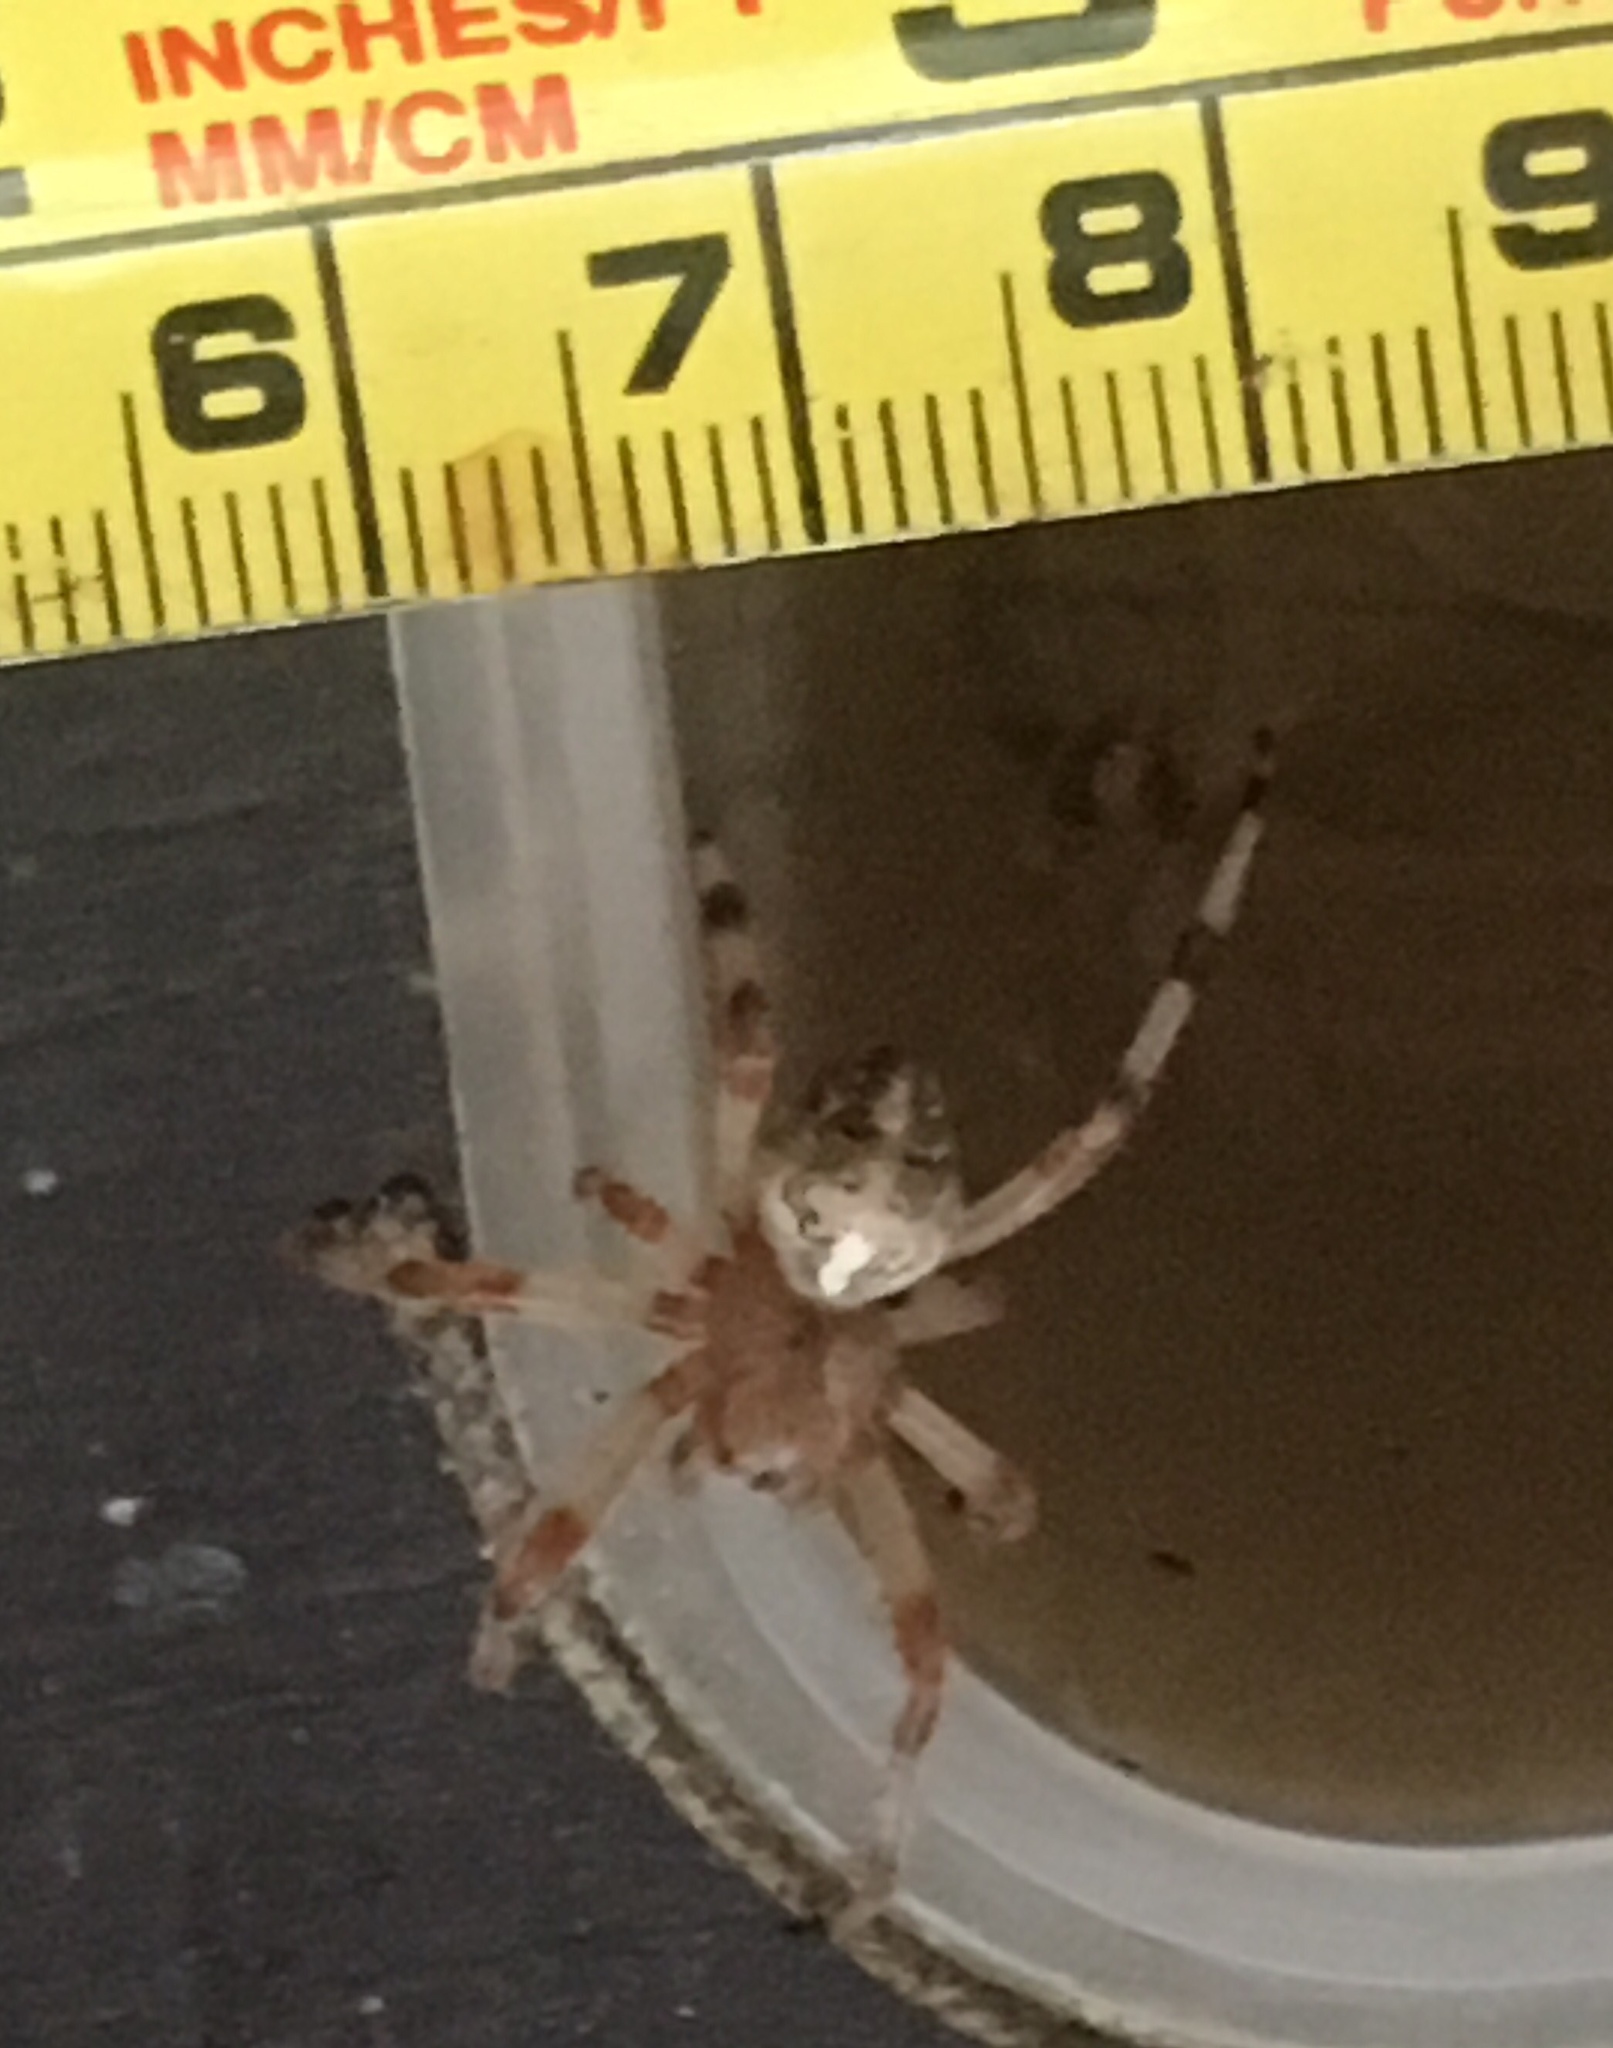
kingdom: Animalia
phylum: Arthropoda
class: Arachnida
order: Araneae
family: Araneidae
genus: Araneus
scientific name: Araneus marmoreus
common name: Marbled orbweaver
